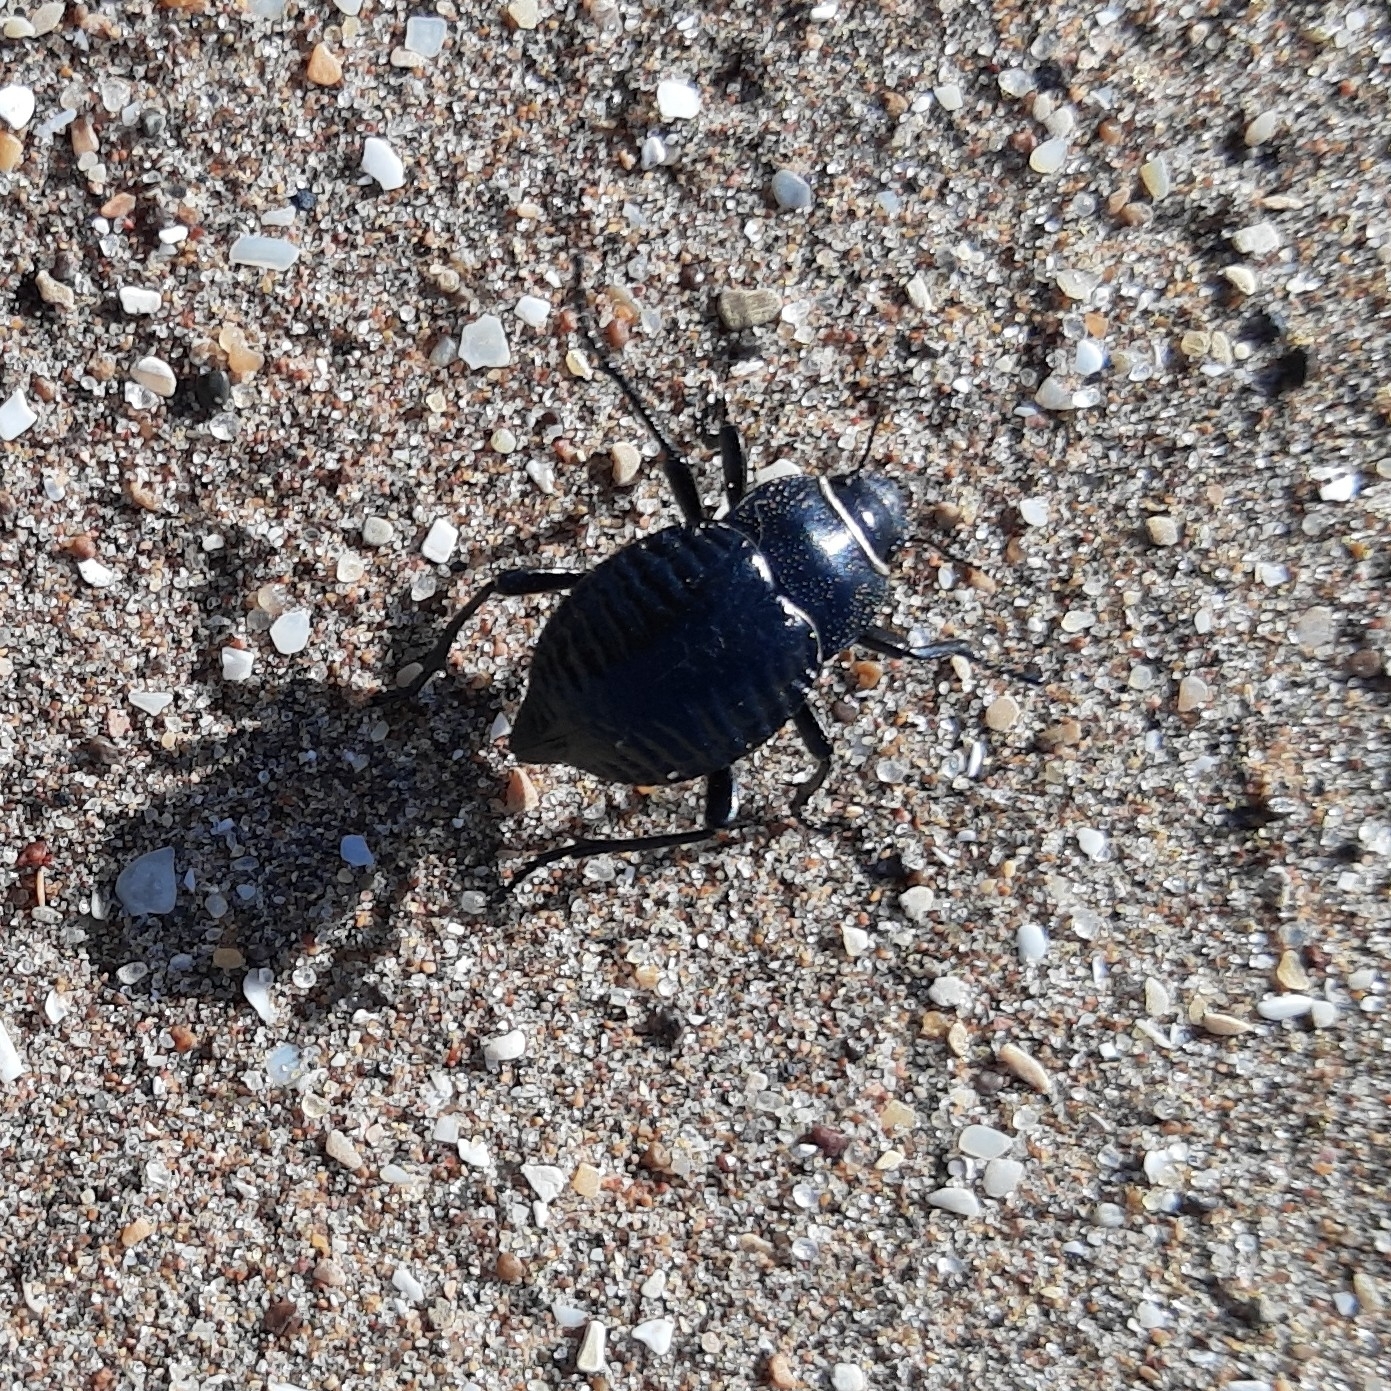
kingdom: Animalia
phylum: Arthropoda
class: Insecta
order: Coleoptera
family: Tenebrionidae
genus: Nyctelia
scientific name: Nyctelia
